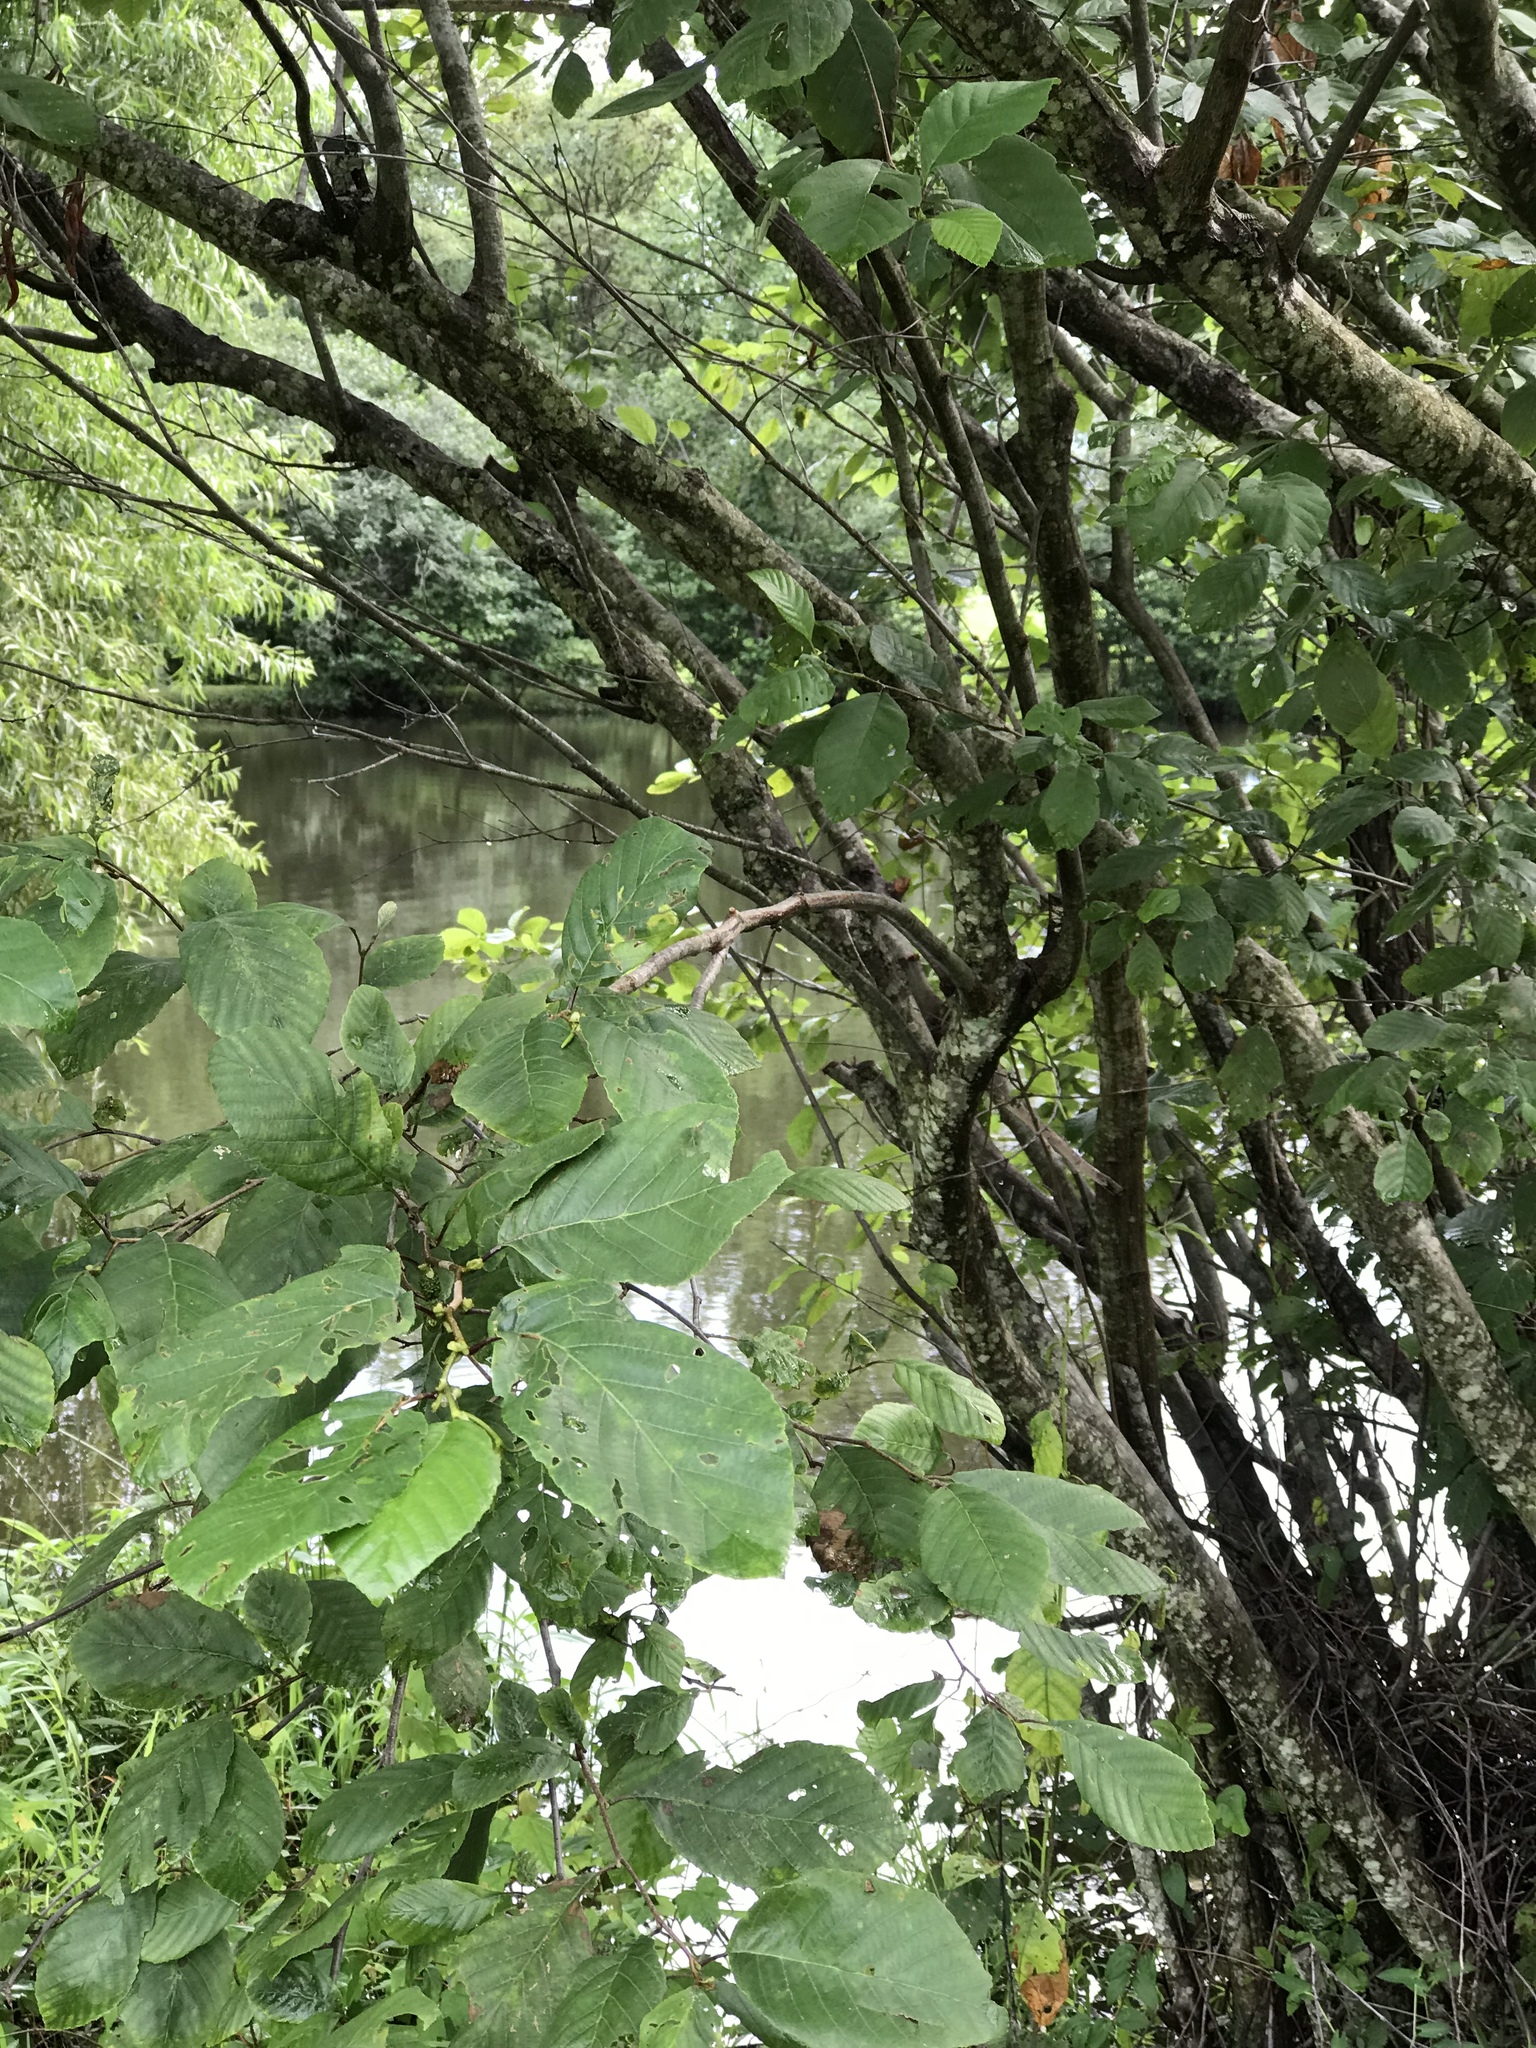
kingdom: Plantae
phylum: Tracheophyta
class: Magnoliopsida
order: Fagales
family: Betulaceae
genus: Alnus
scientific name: Alnus serrulata
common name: Hazel alder
